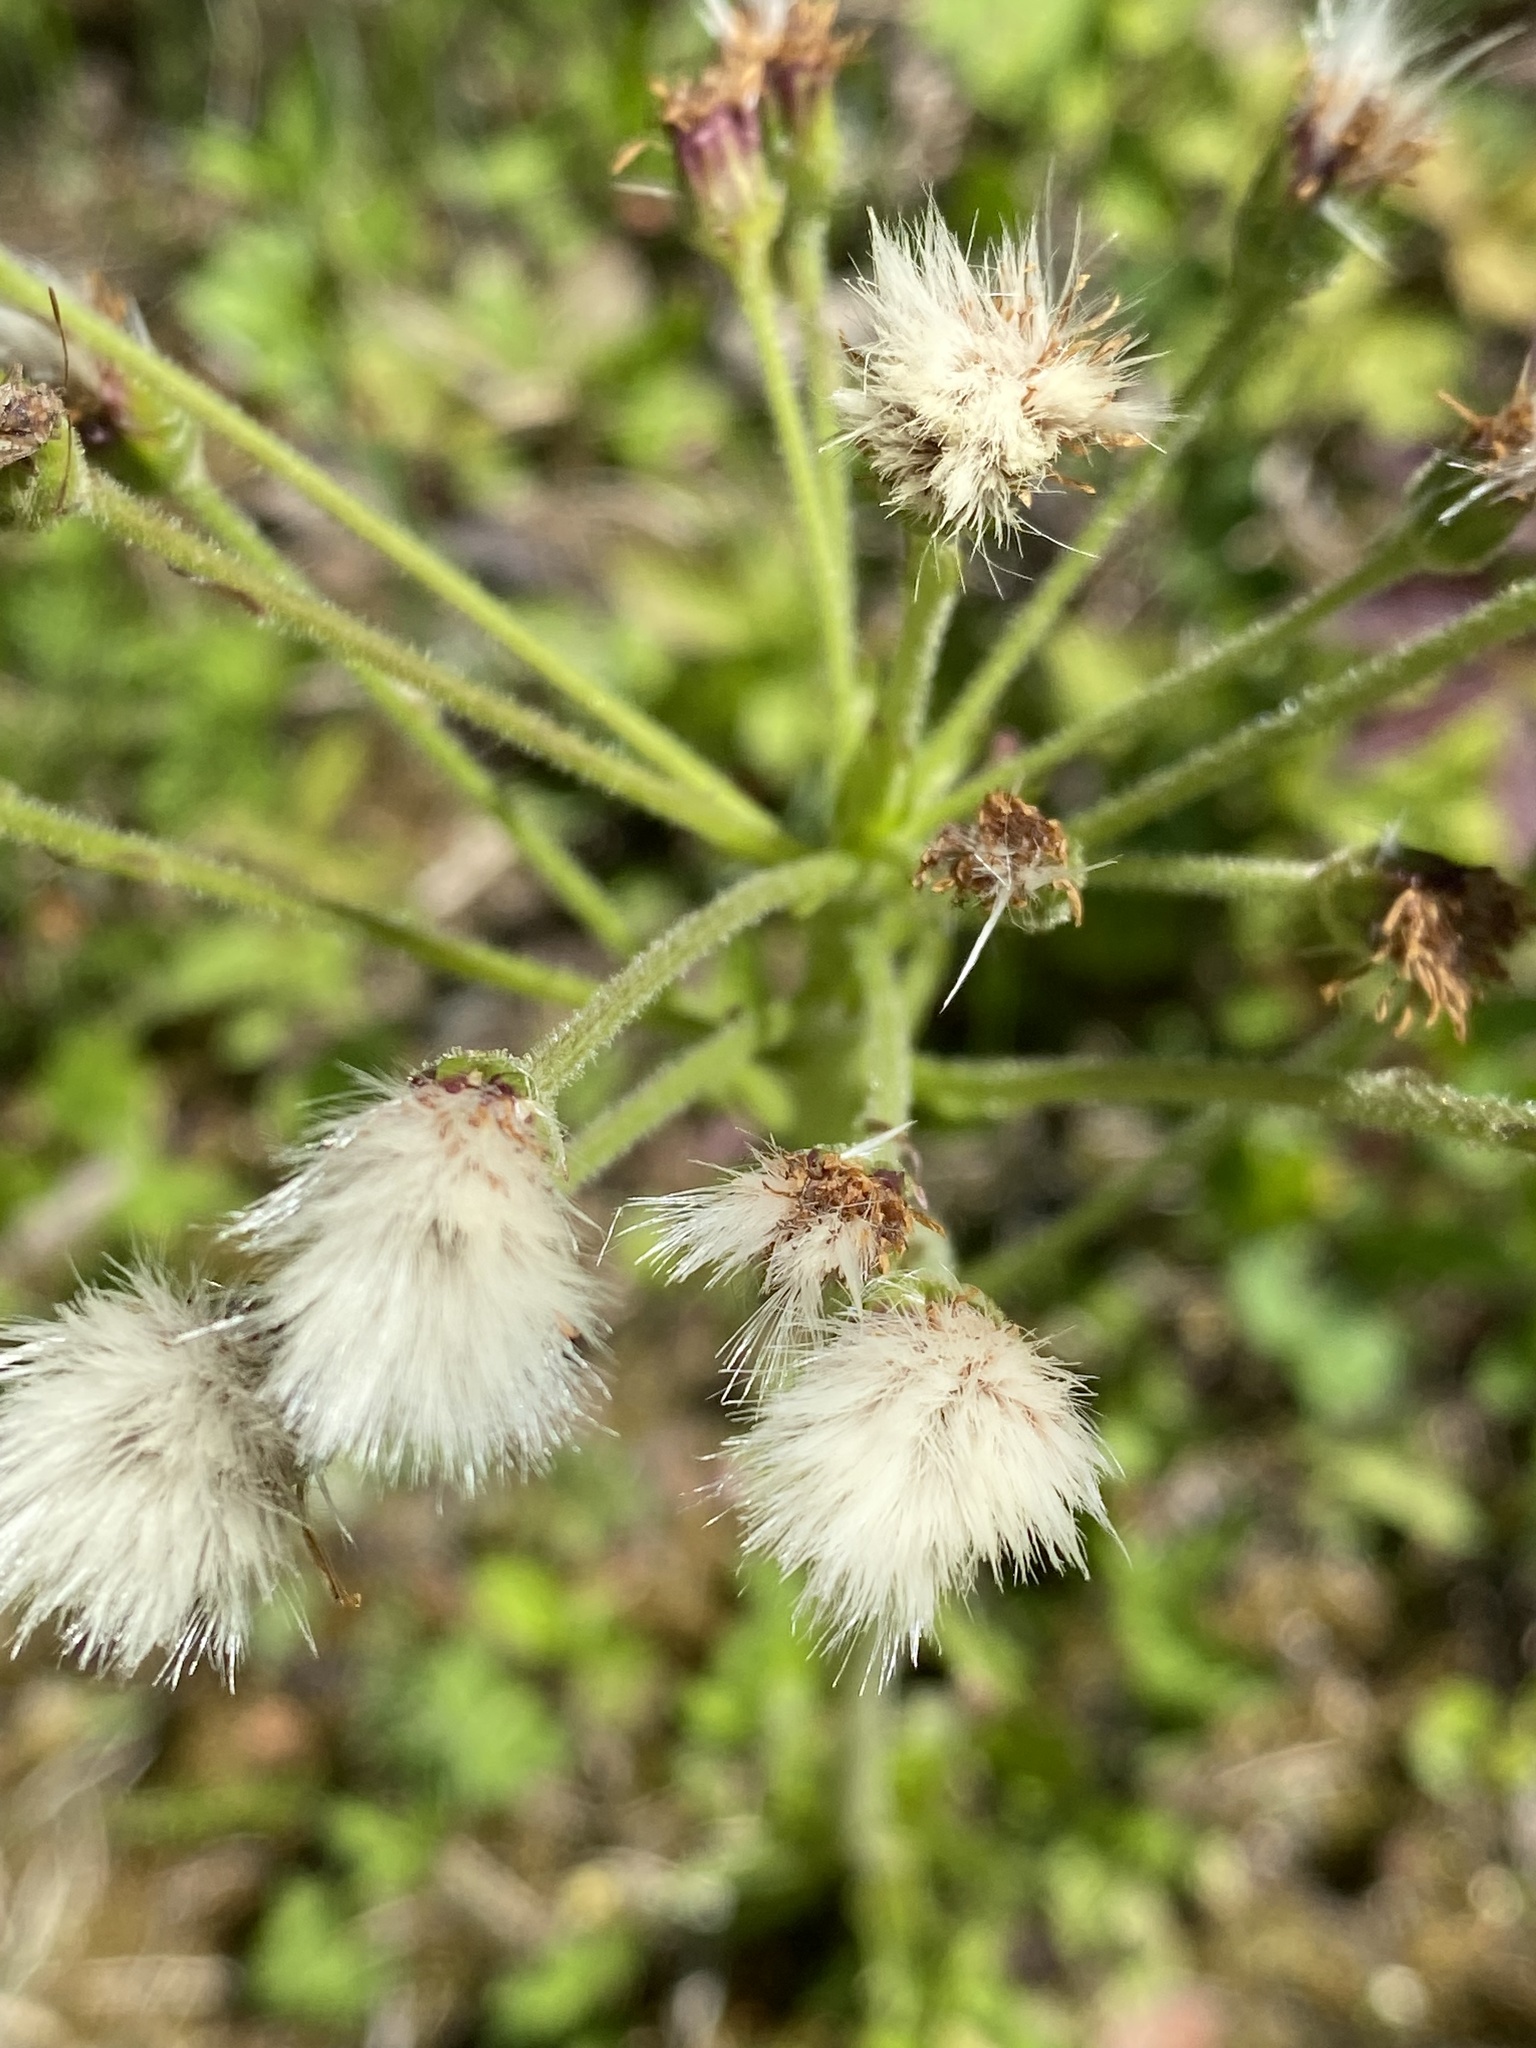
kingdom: Plantae
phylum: Tracheophyta
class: Magnoliopsida
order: Asterales
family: Asteraceae
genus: Petasites
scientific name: Petasites frigidus
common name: Arctic butterbur
